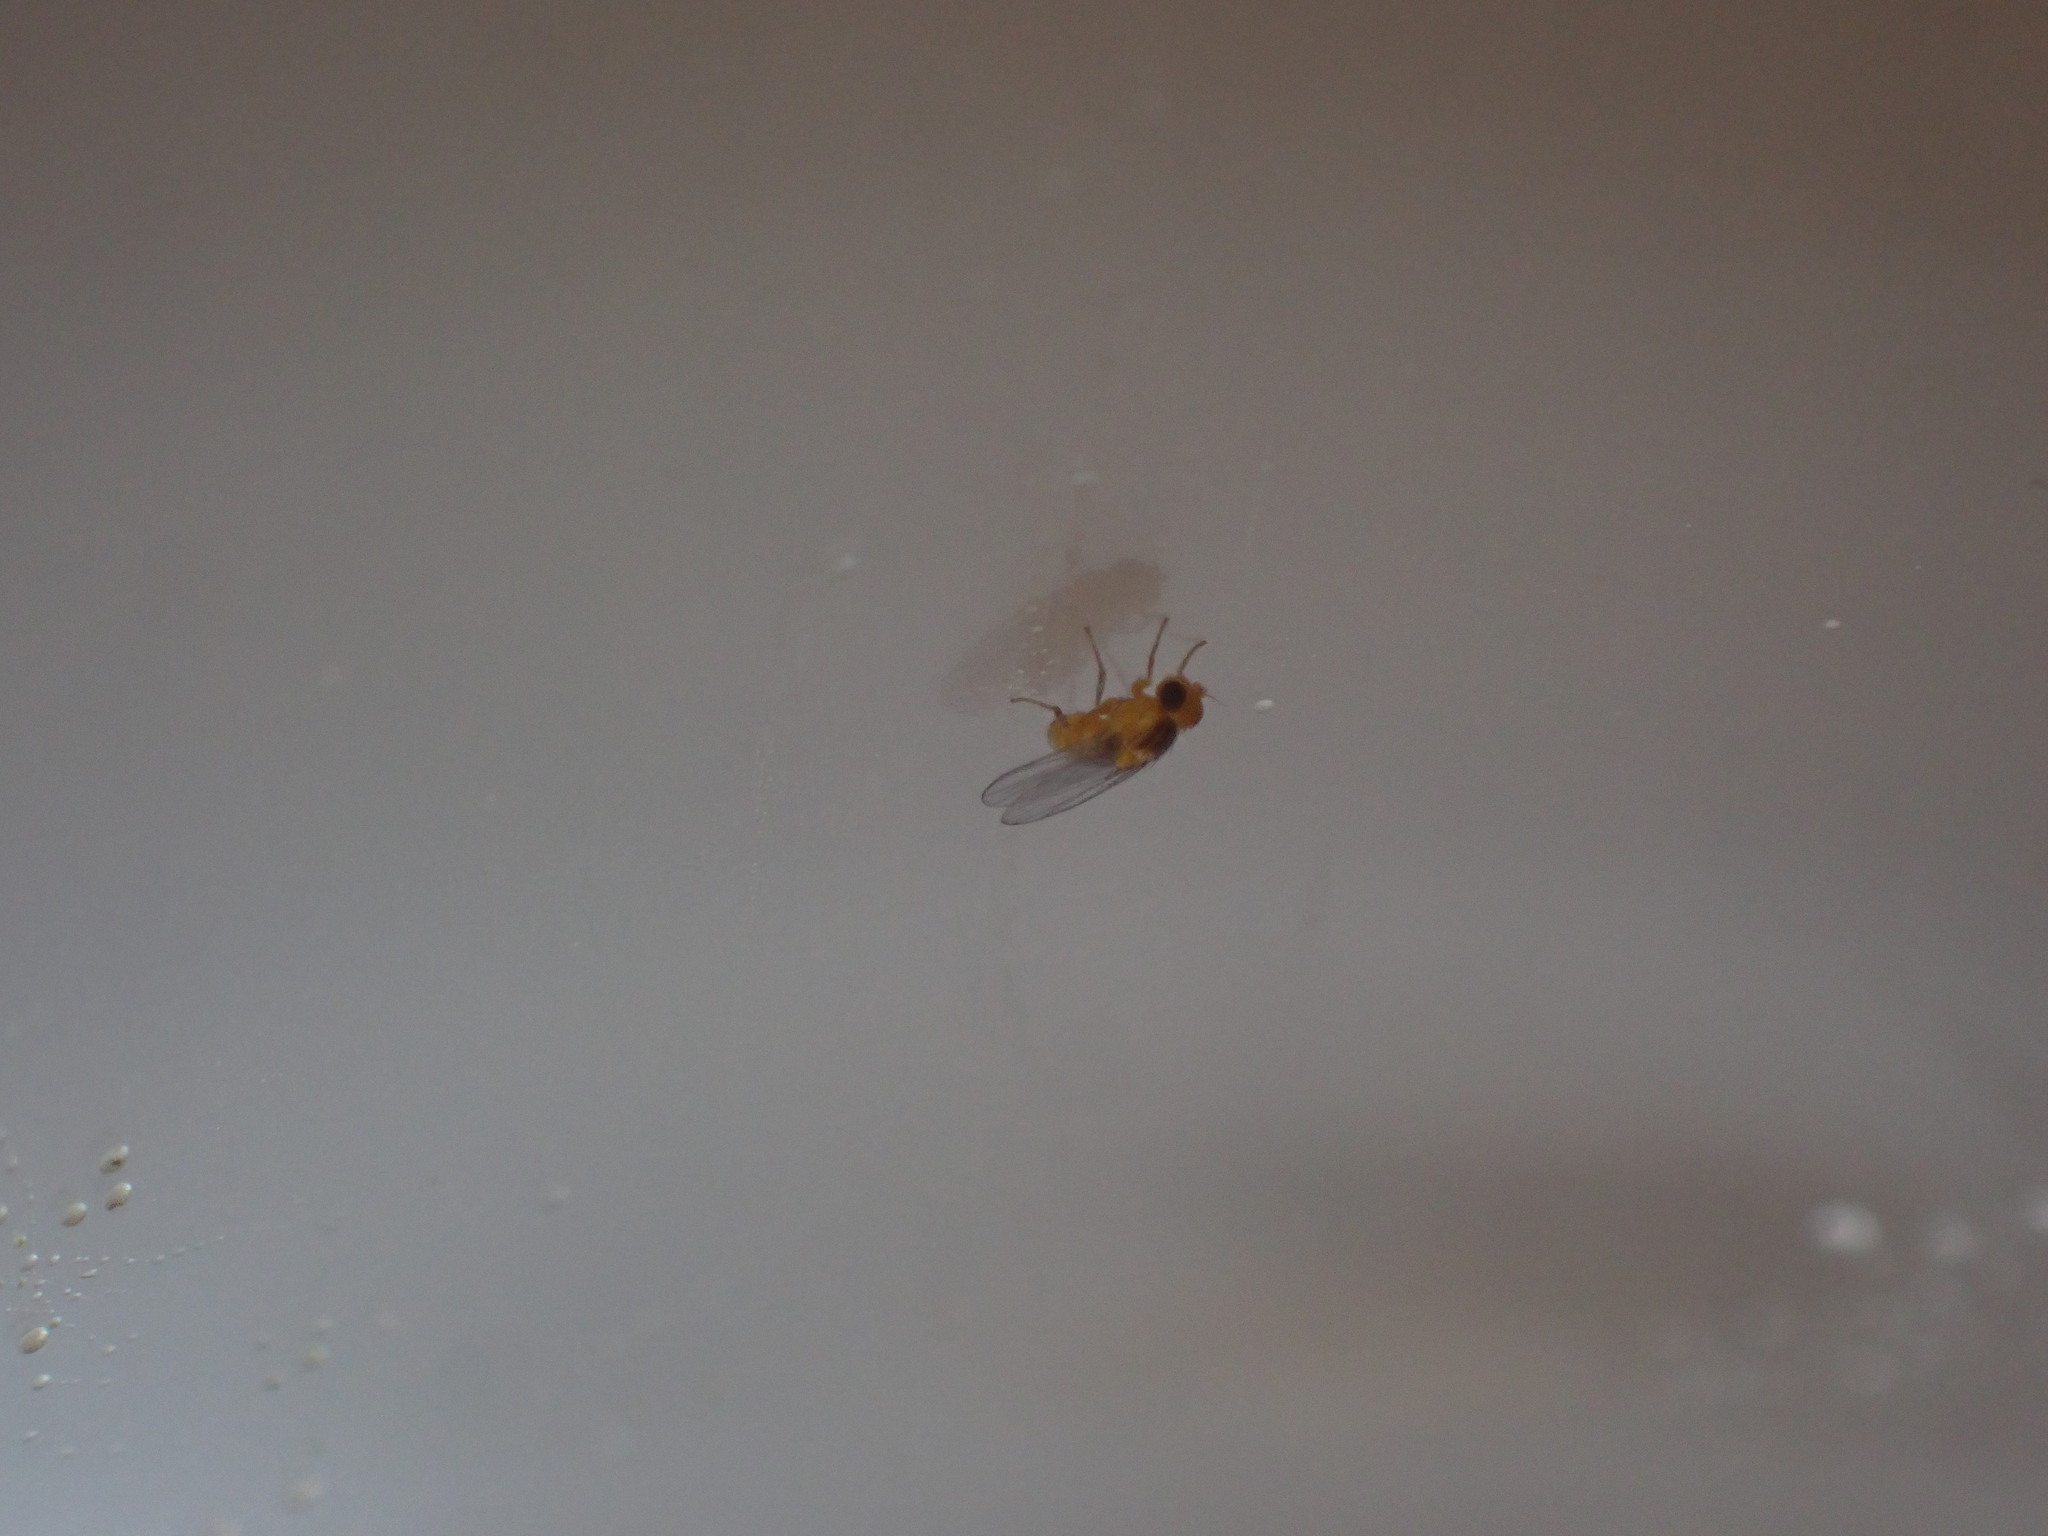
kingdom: Animalia
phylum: Arthropoda
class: Insecta
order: Diptera
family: Agromyzidae
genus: Phytoliriomyza
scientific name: Phytoliriomyza melampyga
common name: Jewelweed leaf-miner fly
